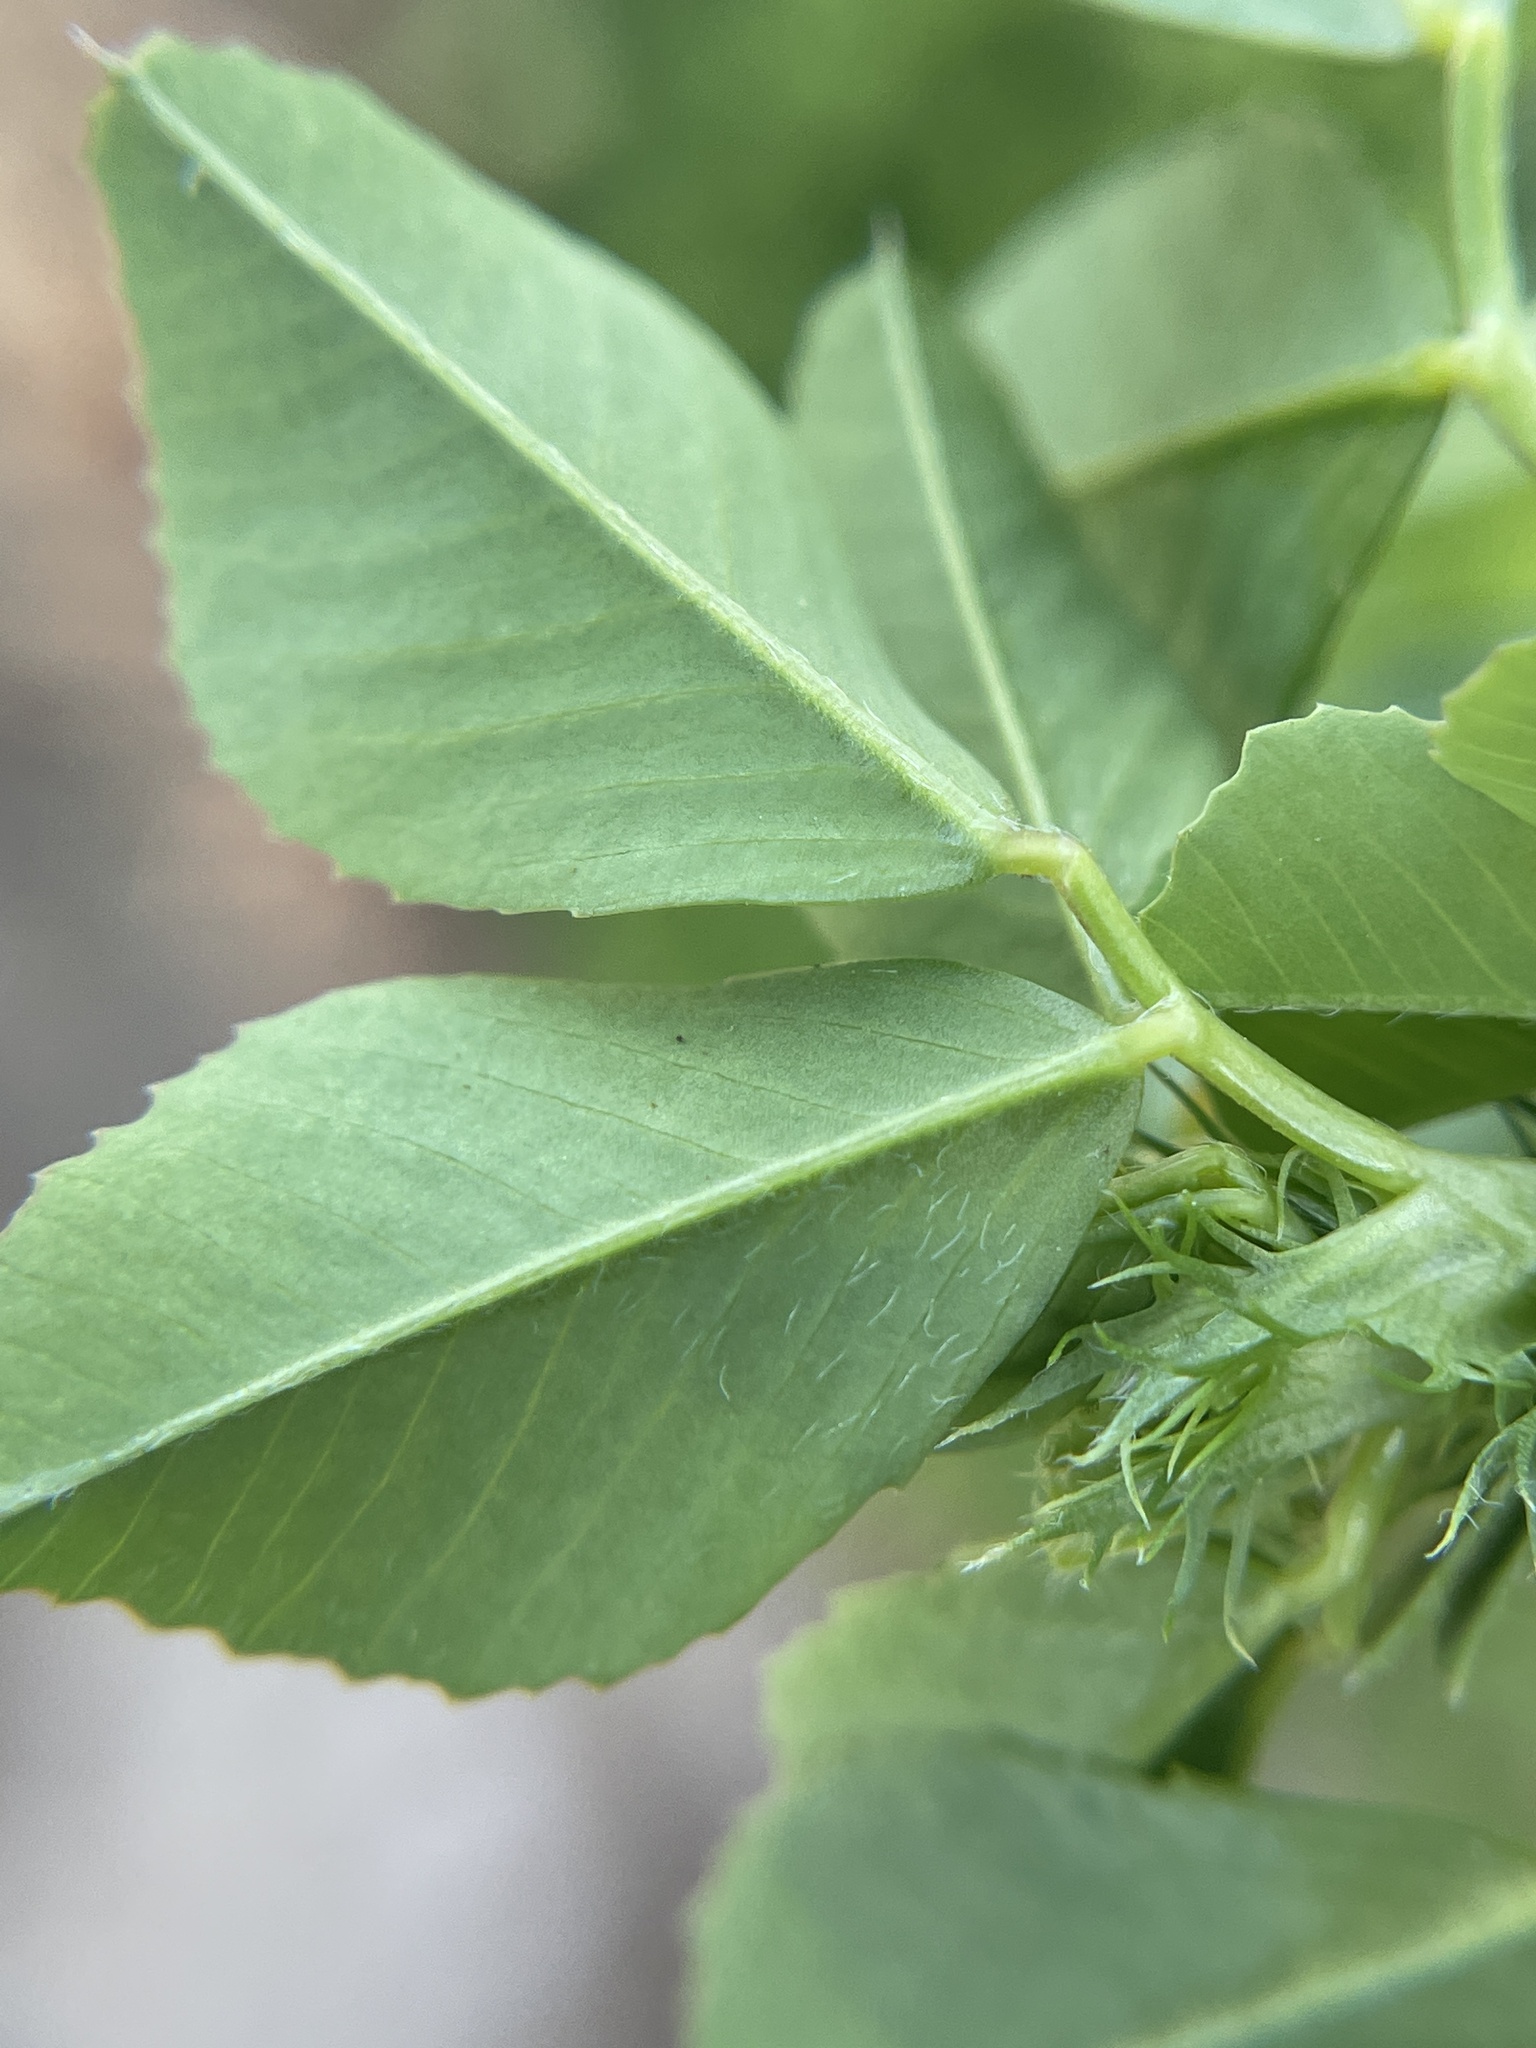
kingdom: Plantae
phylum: Tracheophyta
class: Magnoliopsida
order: Fabales
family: Fabaceae
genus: Medicago
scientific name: Medicago polymorpha
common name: Burclover
